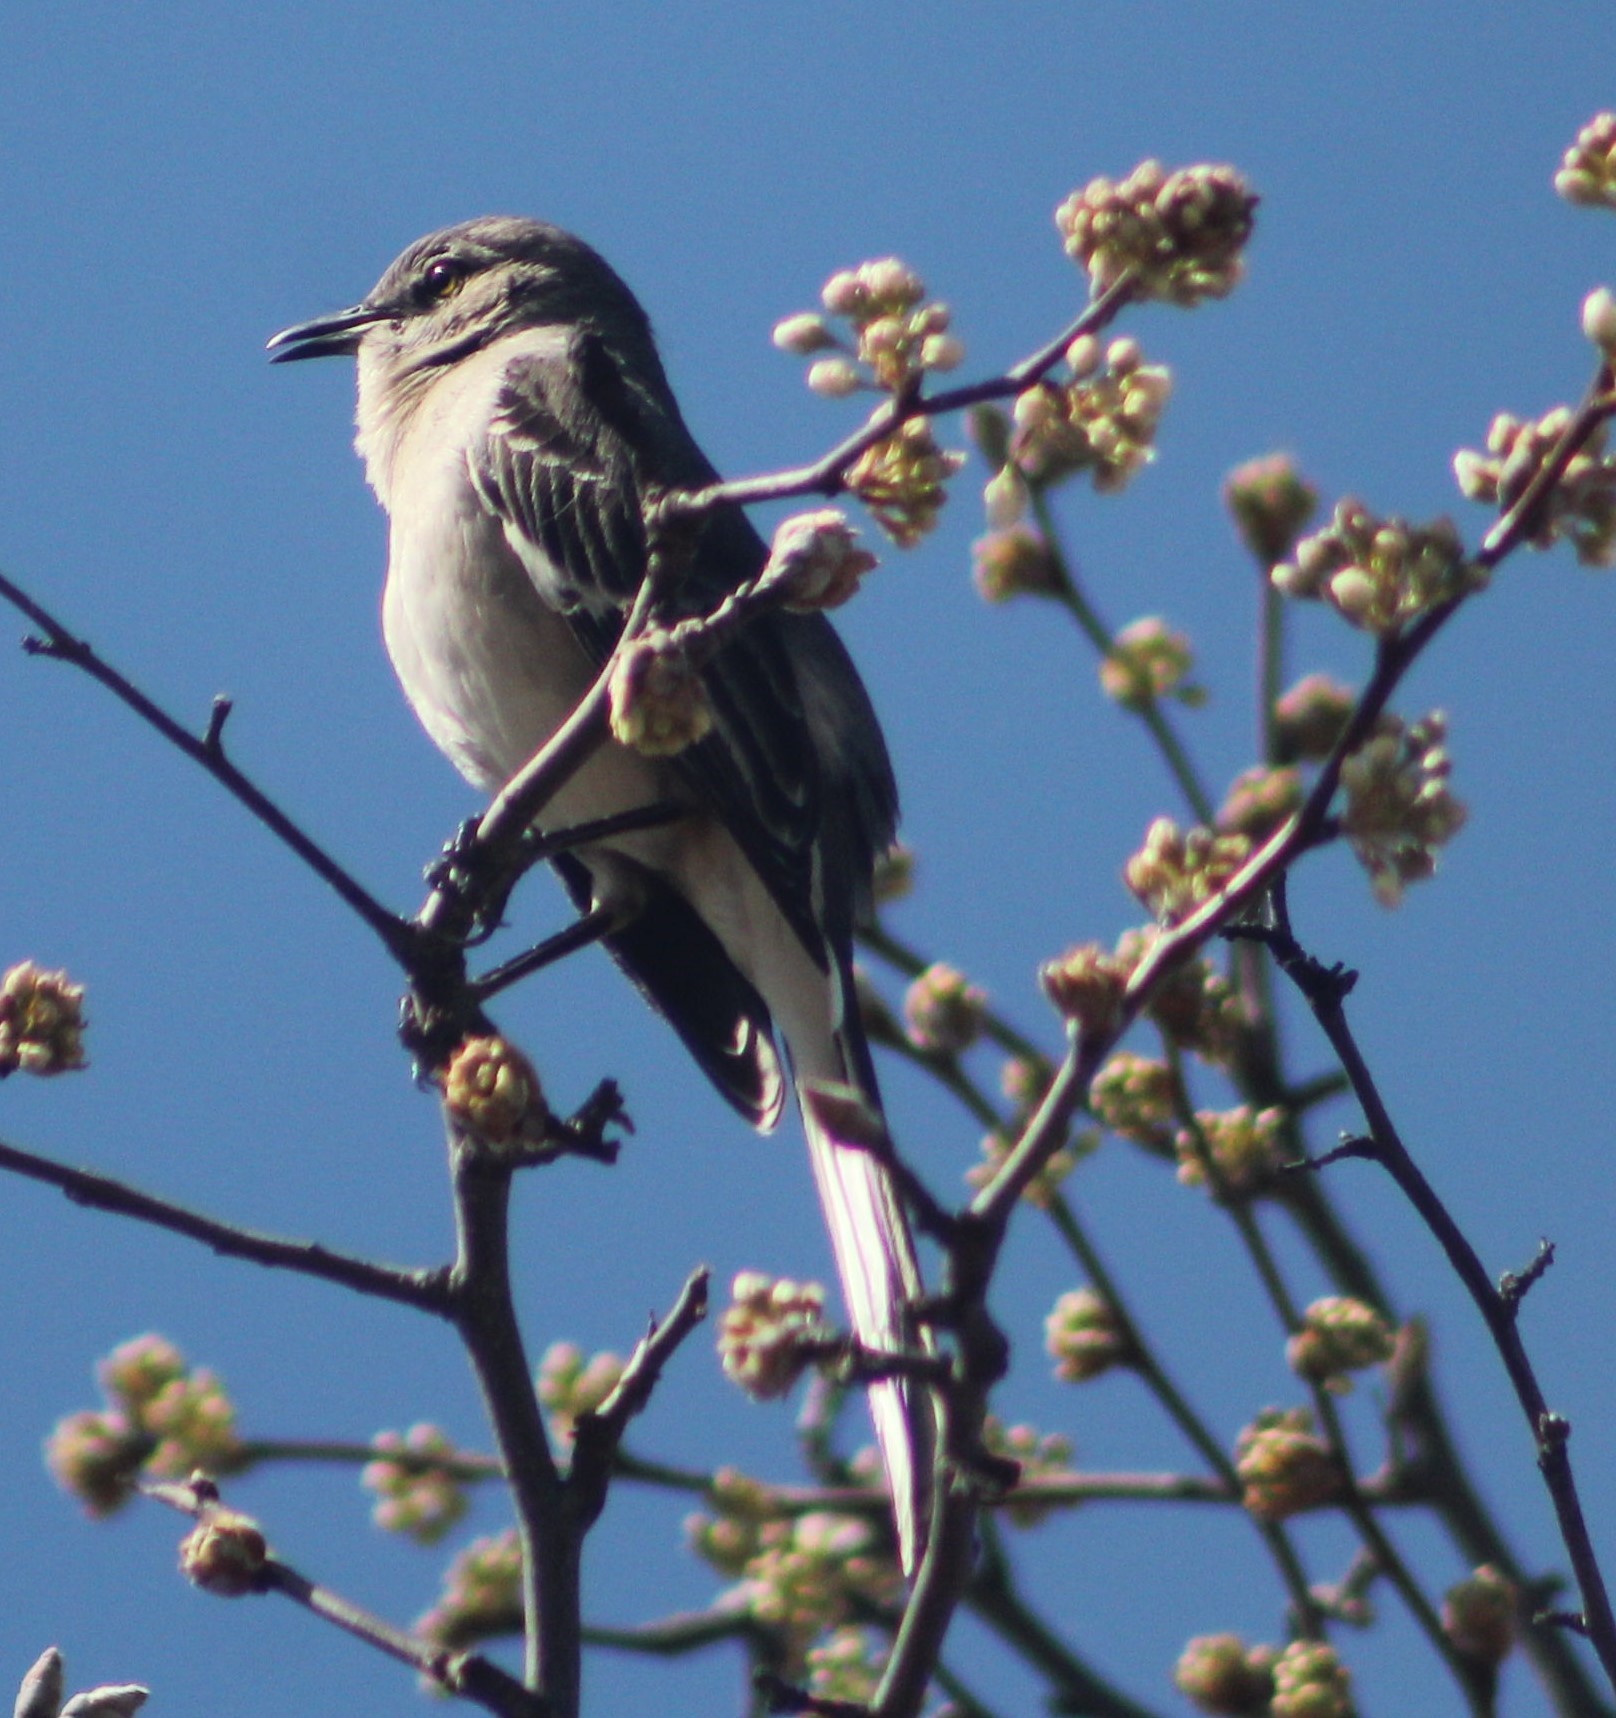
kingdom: Animalia
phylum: Chordata
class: Aves
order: Passeriformes
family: Mimidae
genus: Mimus
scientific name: Mimus polyglottos
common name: Northern mockingbird
